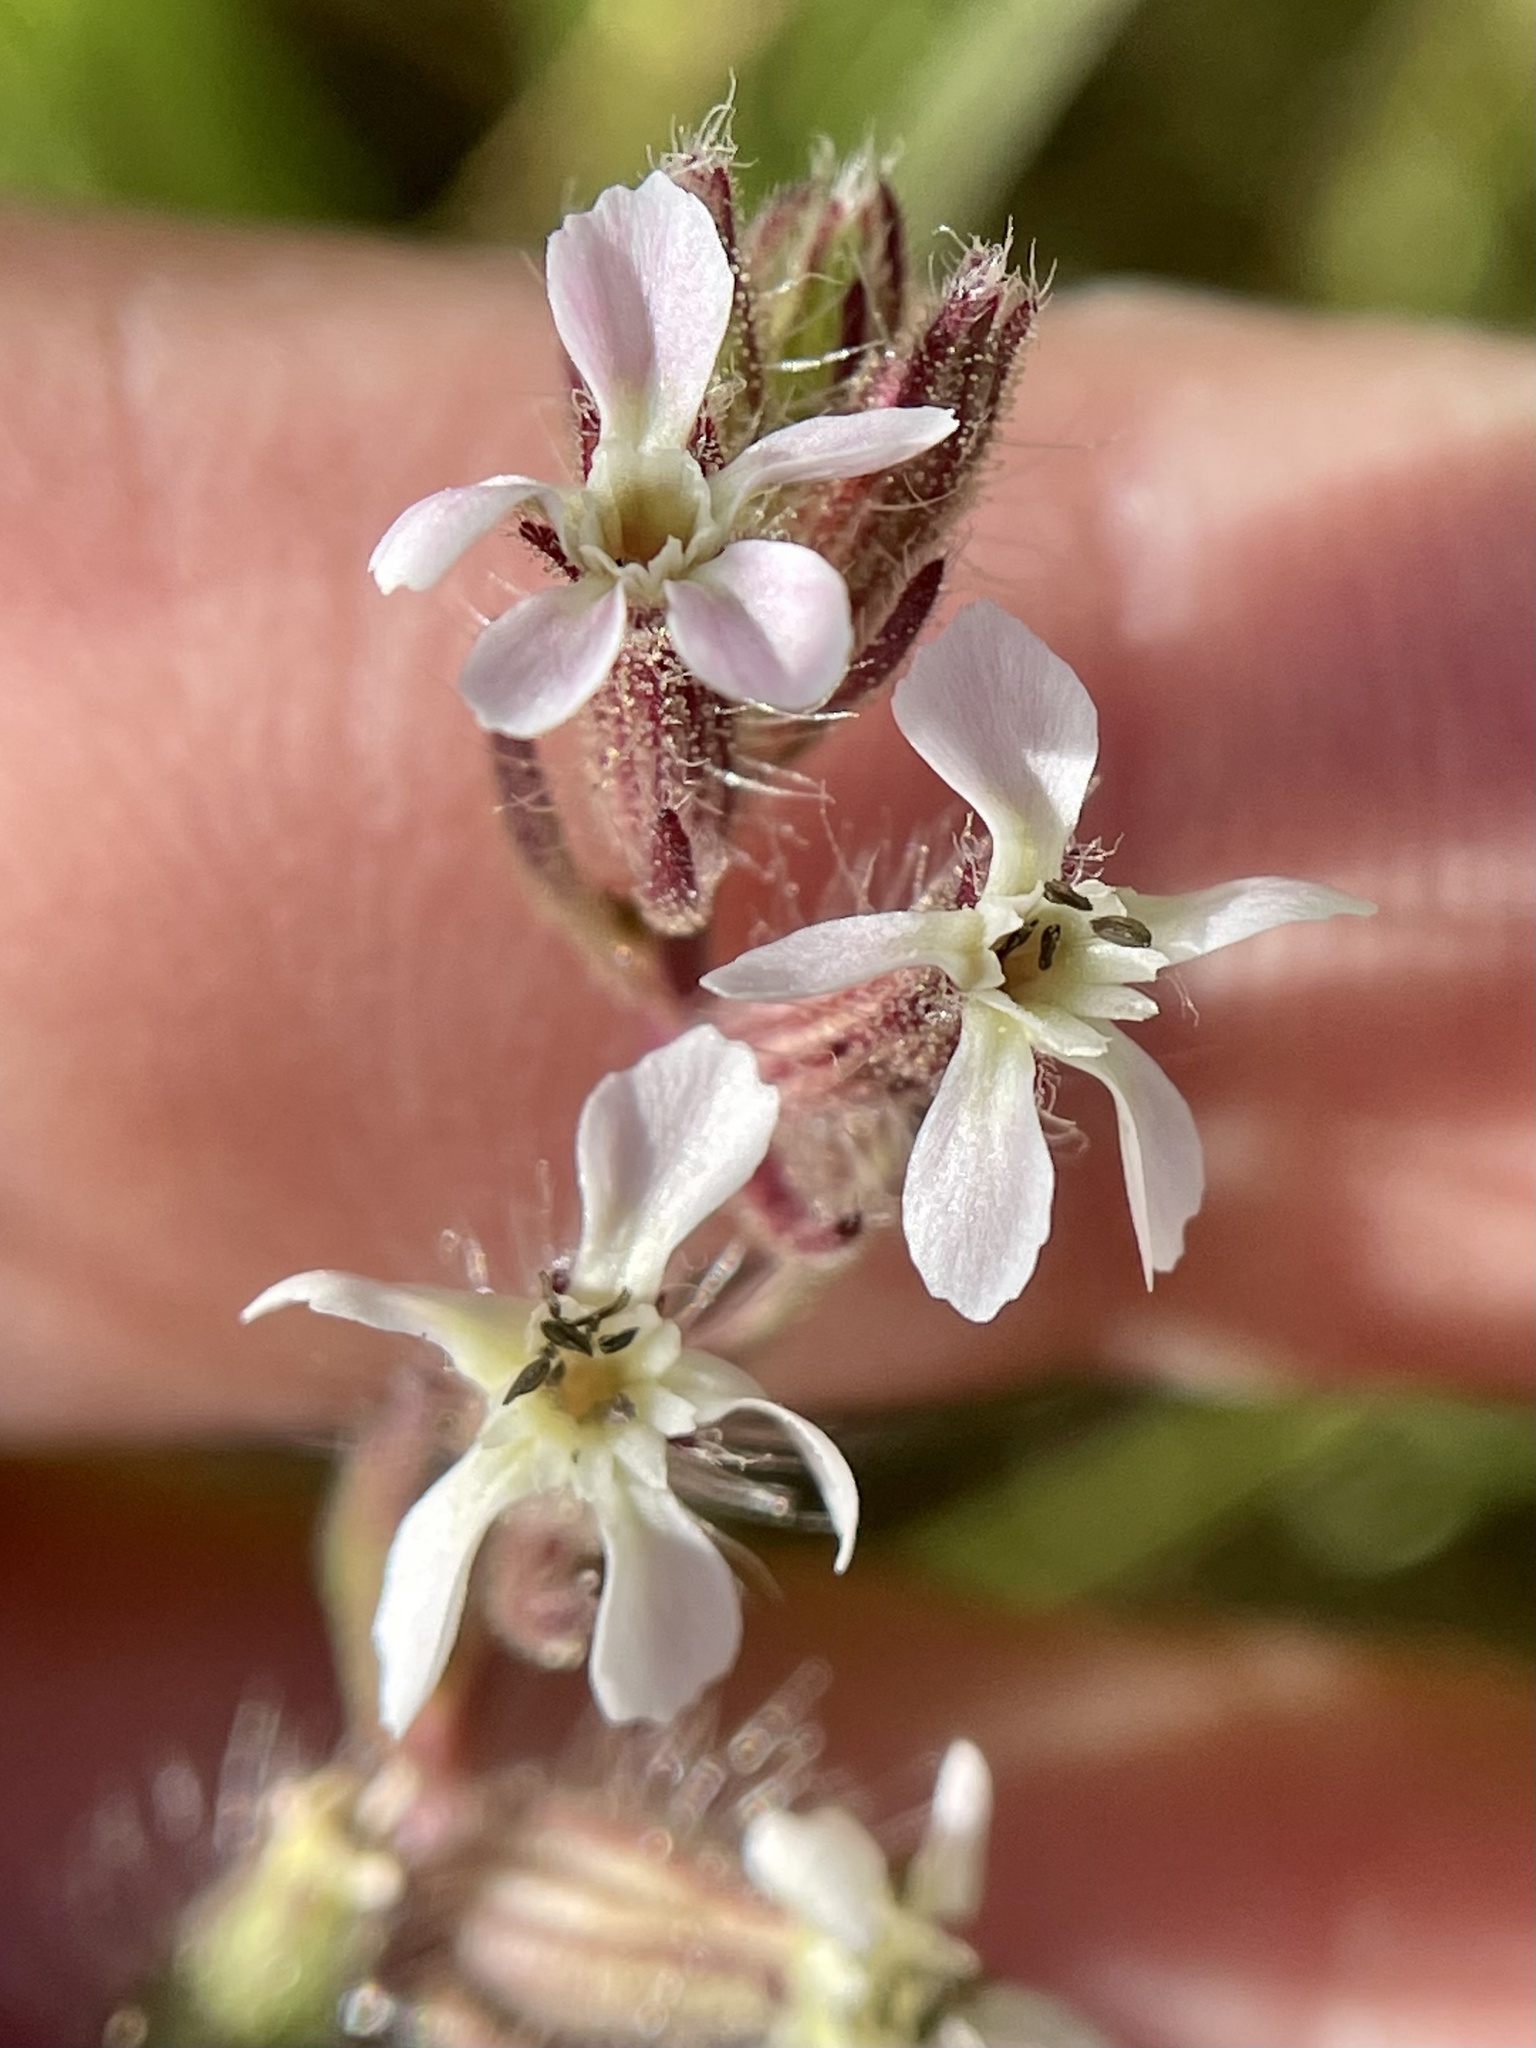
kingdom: Plantae
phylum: Tracheophyta
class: Magnoliopsida
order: Caryophyllales
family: Caryophyllaceae
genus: Silene
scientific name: Silene gallica
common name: Small-flowered catchfly
